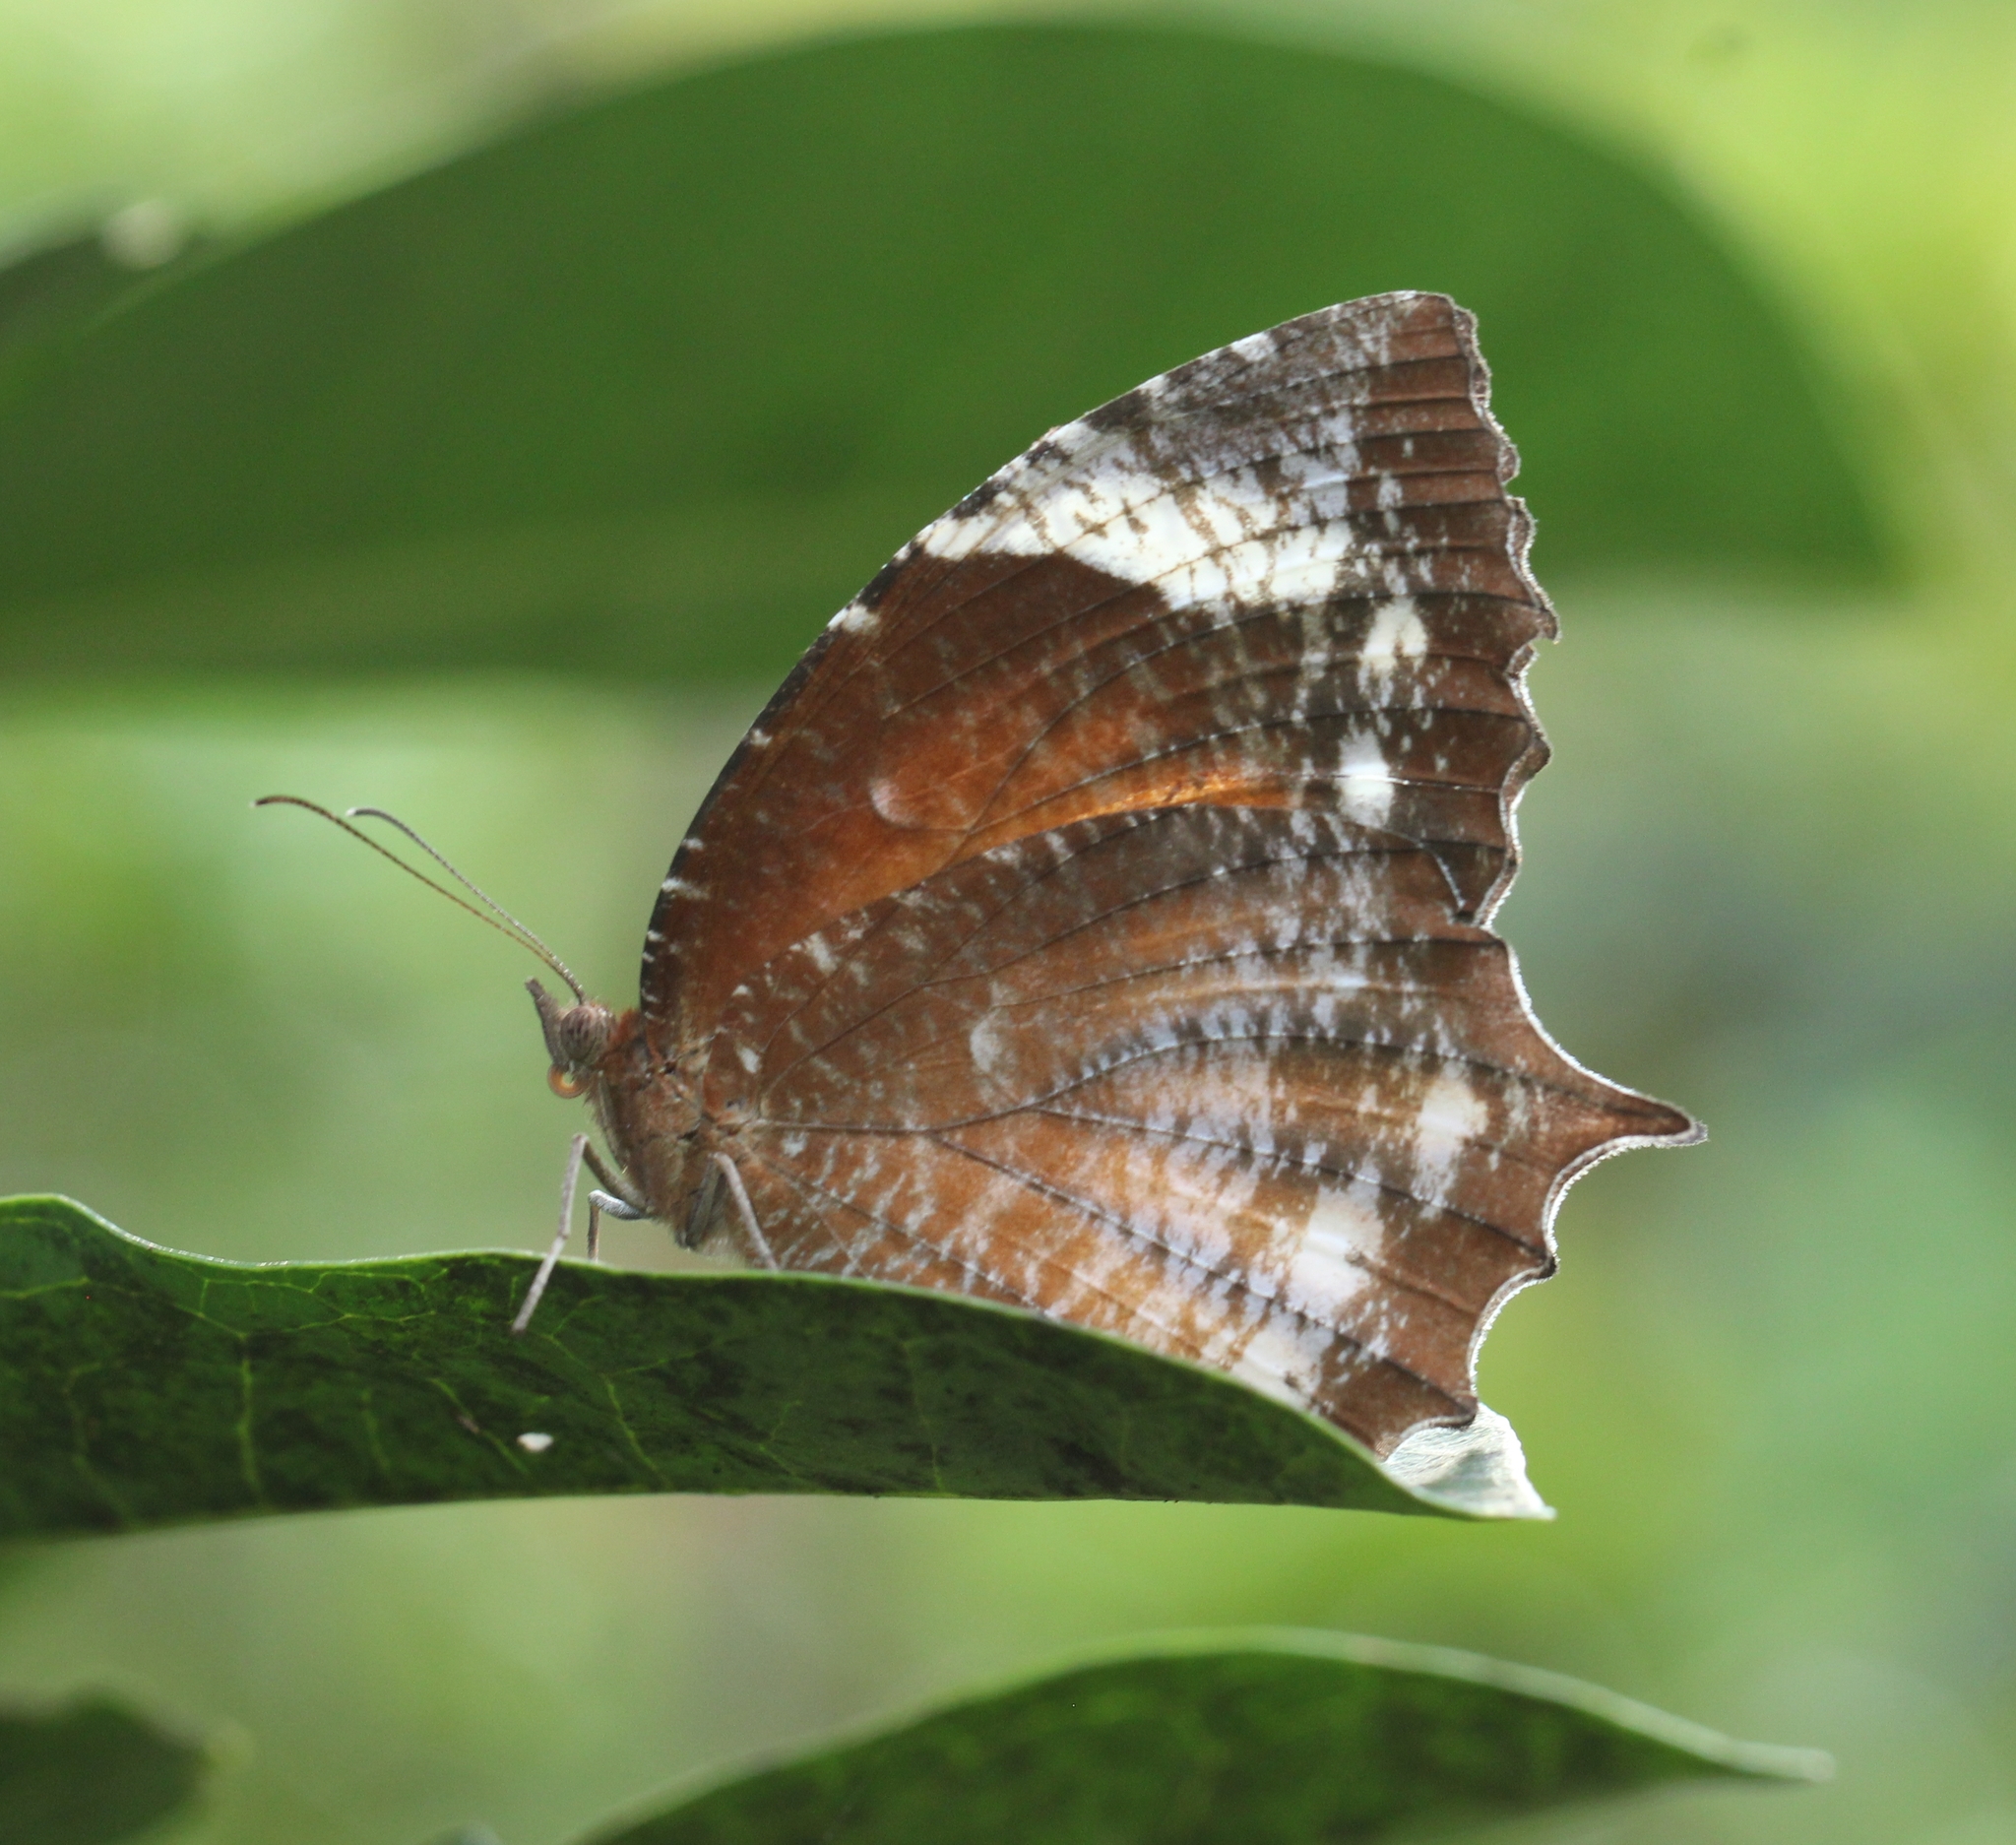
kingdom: Animalia
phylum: Arthropoda
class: Insecta
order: Lepidoptera
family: Nymphalidae
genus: Elymnias
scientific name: Elymnias caudata
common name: Tailed palmfly
